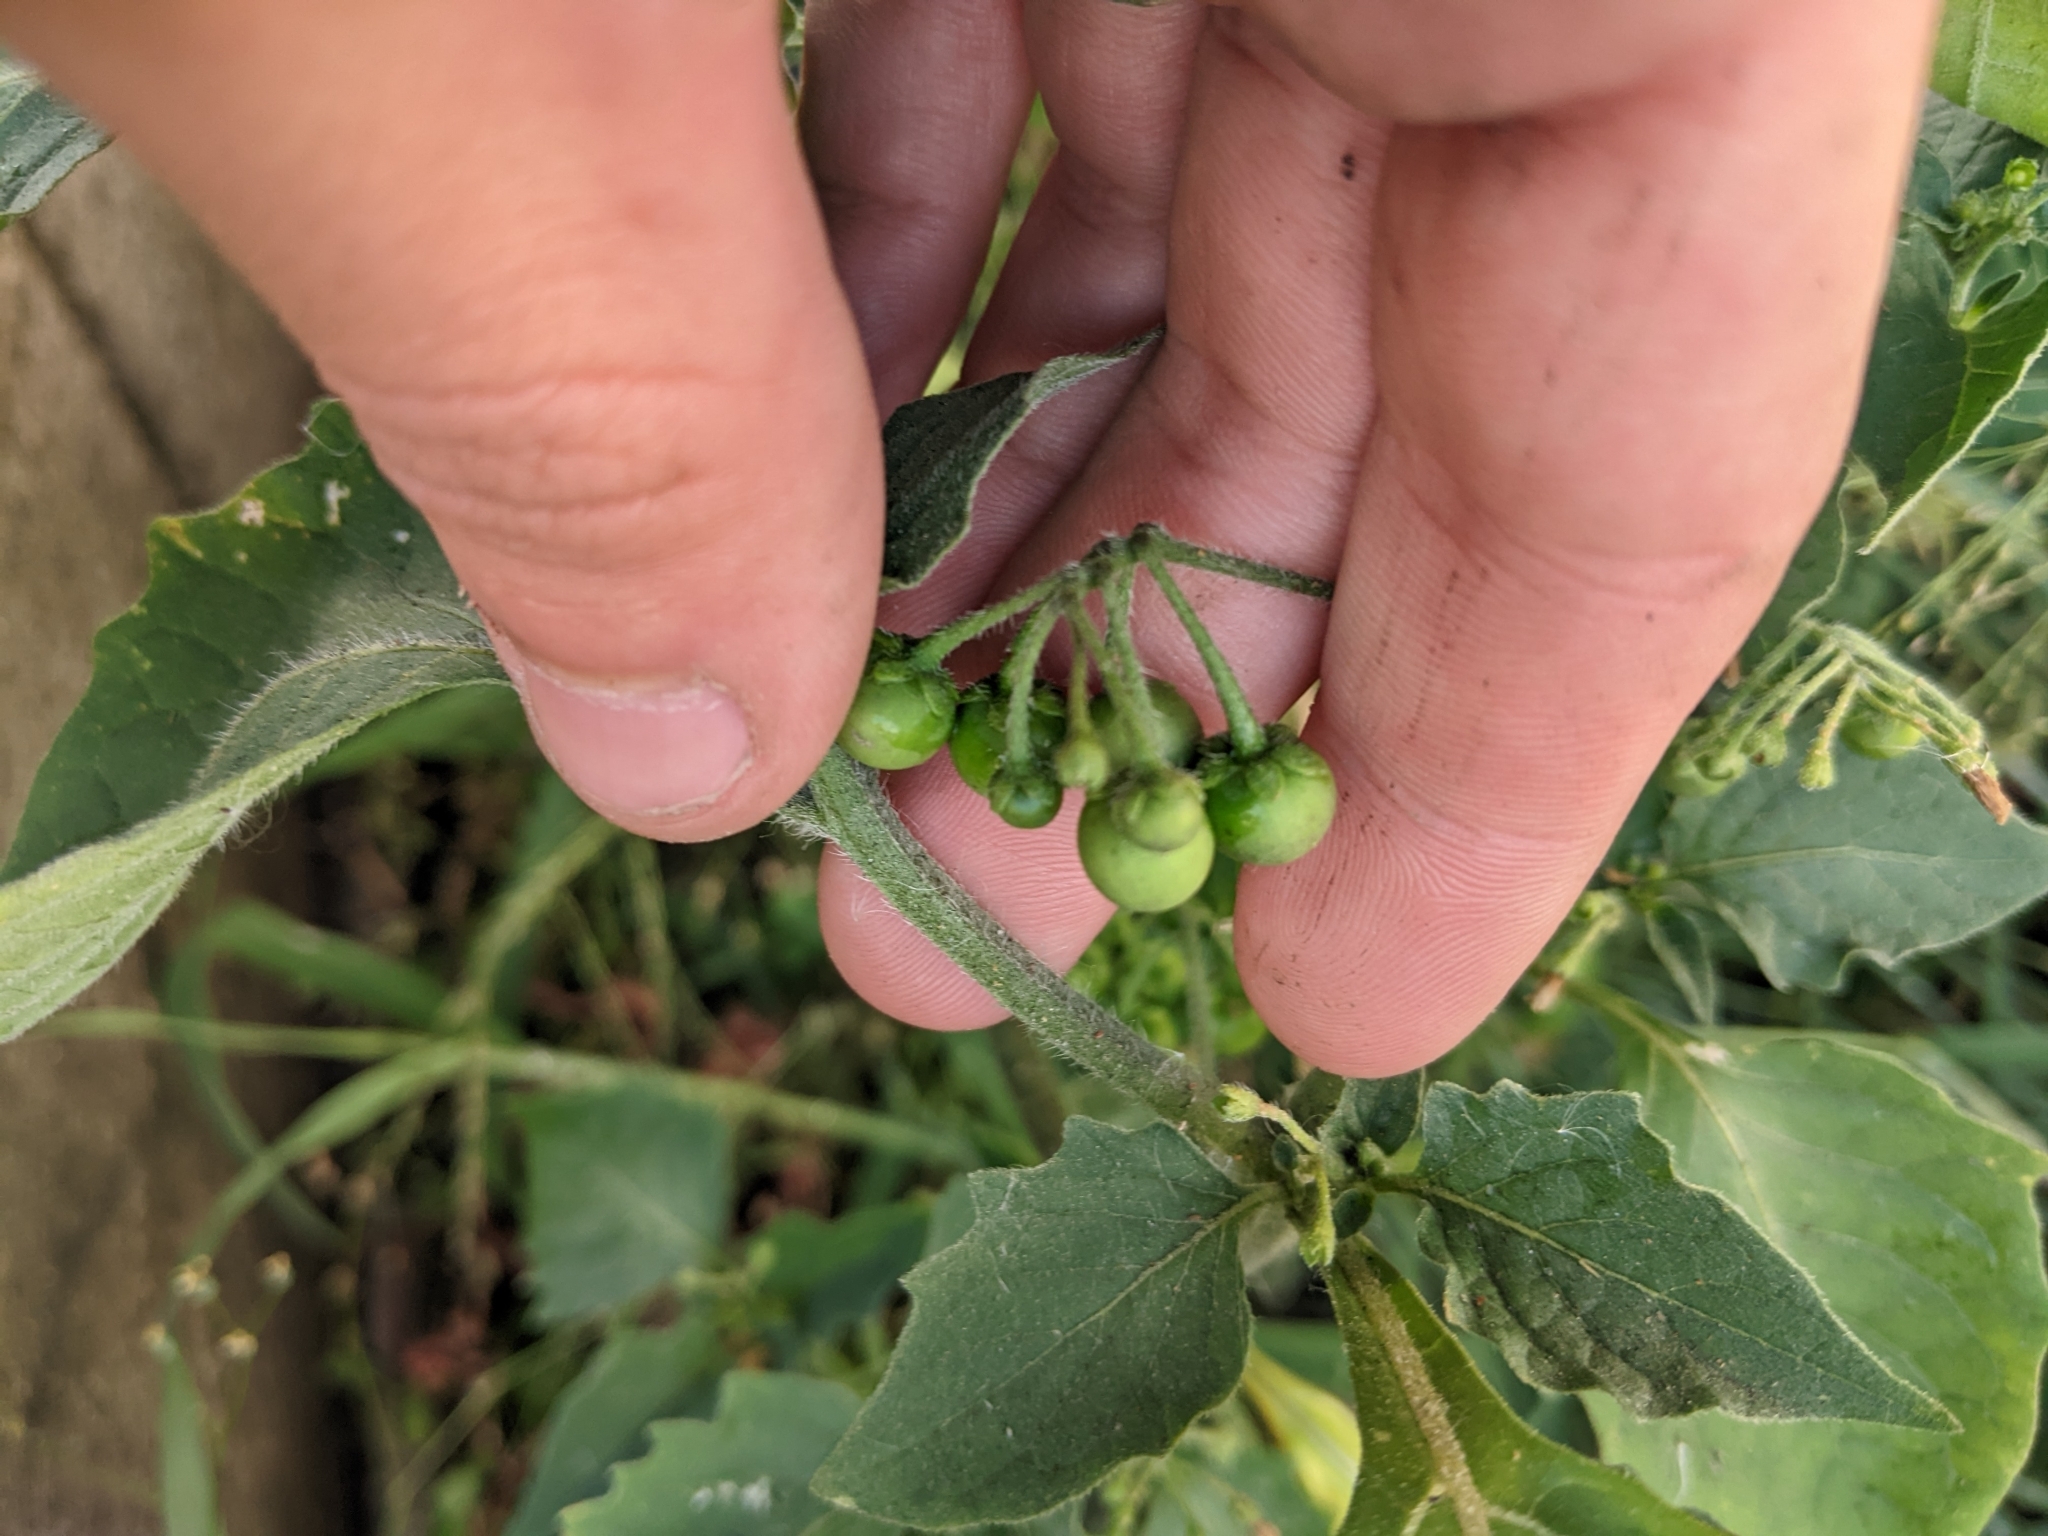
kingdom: Plantae
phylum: Tracheophyta
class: Magnoliopsida
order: Solanales
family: Solanaceae
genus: Solanum
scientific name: Solanum nigrum
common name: Black nightshade
